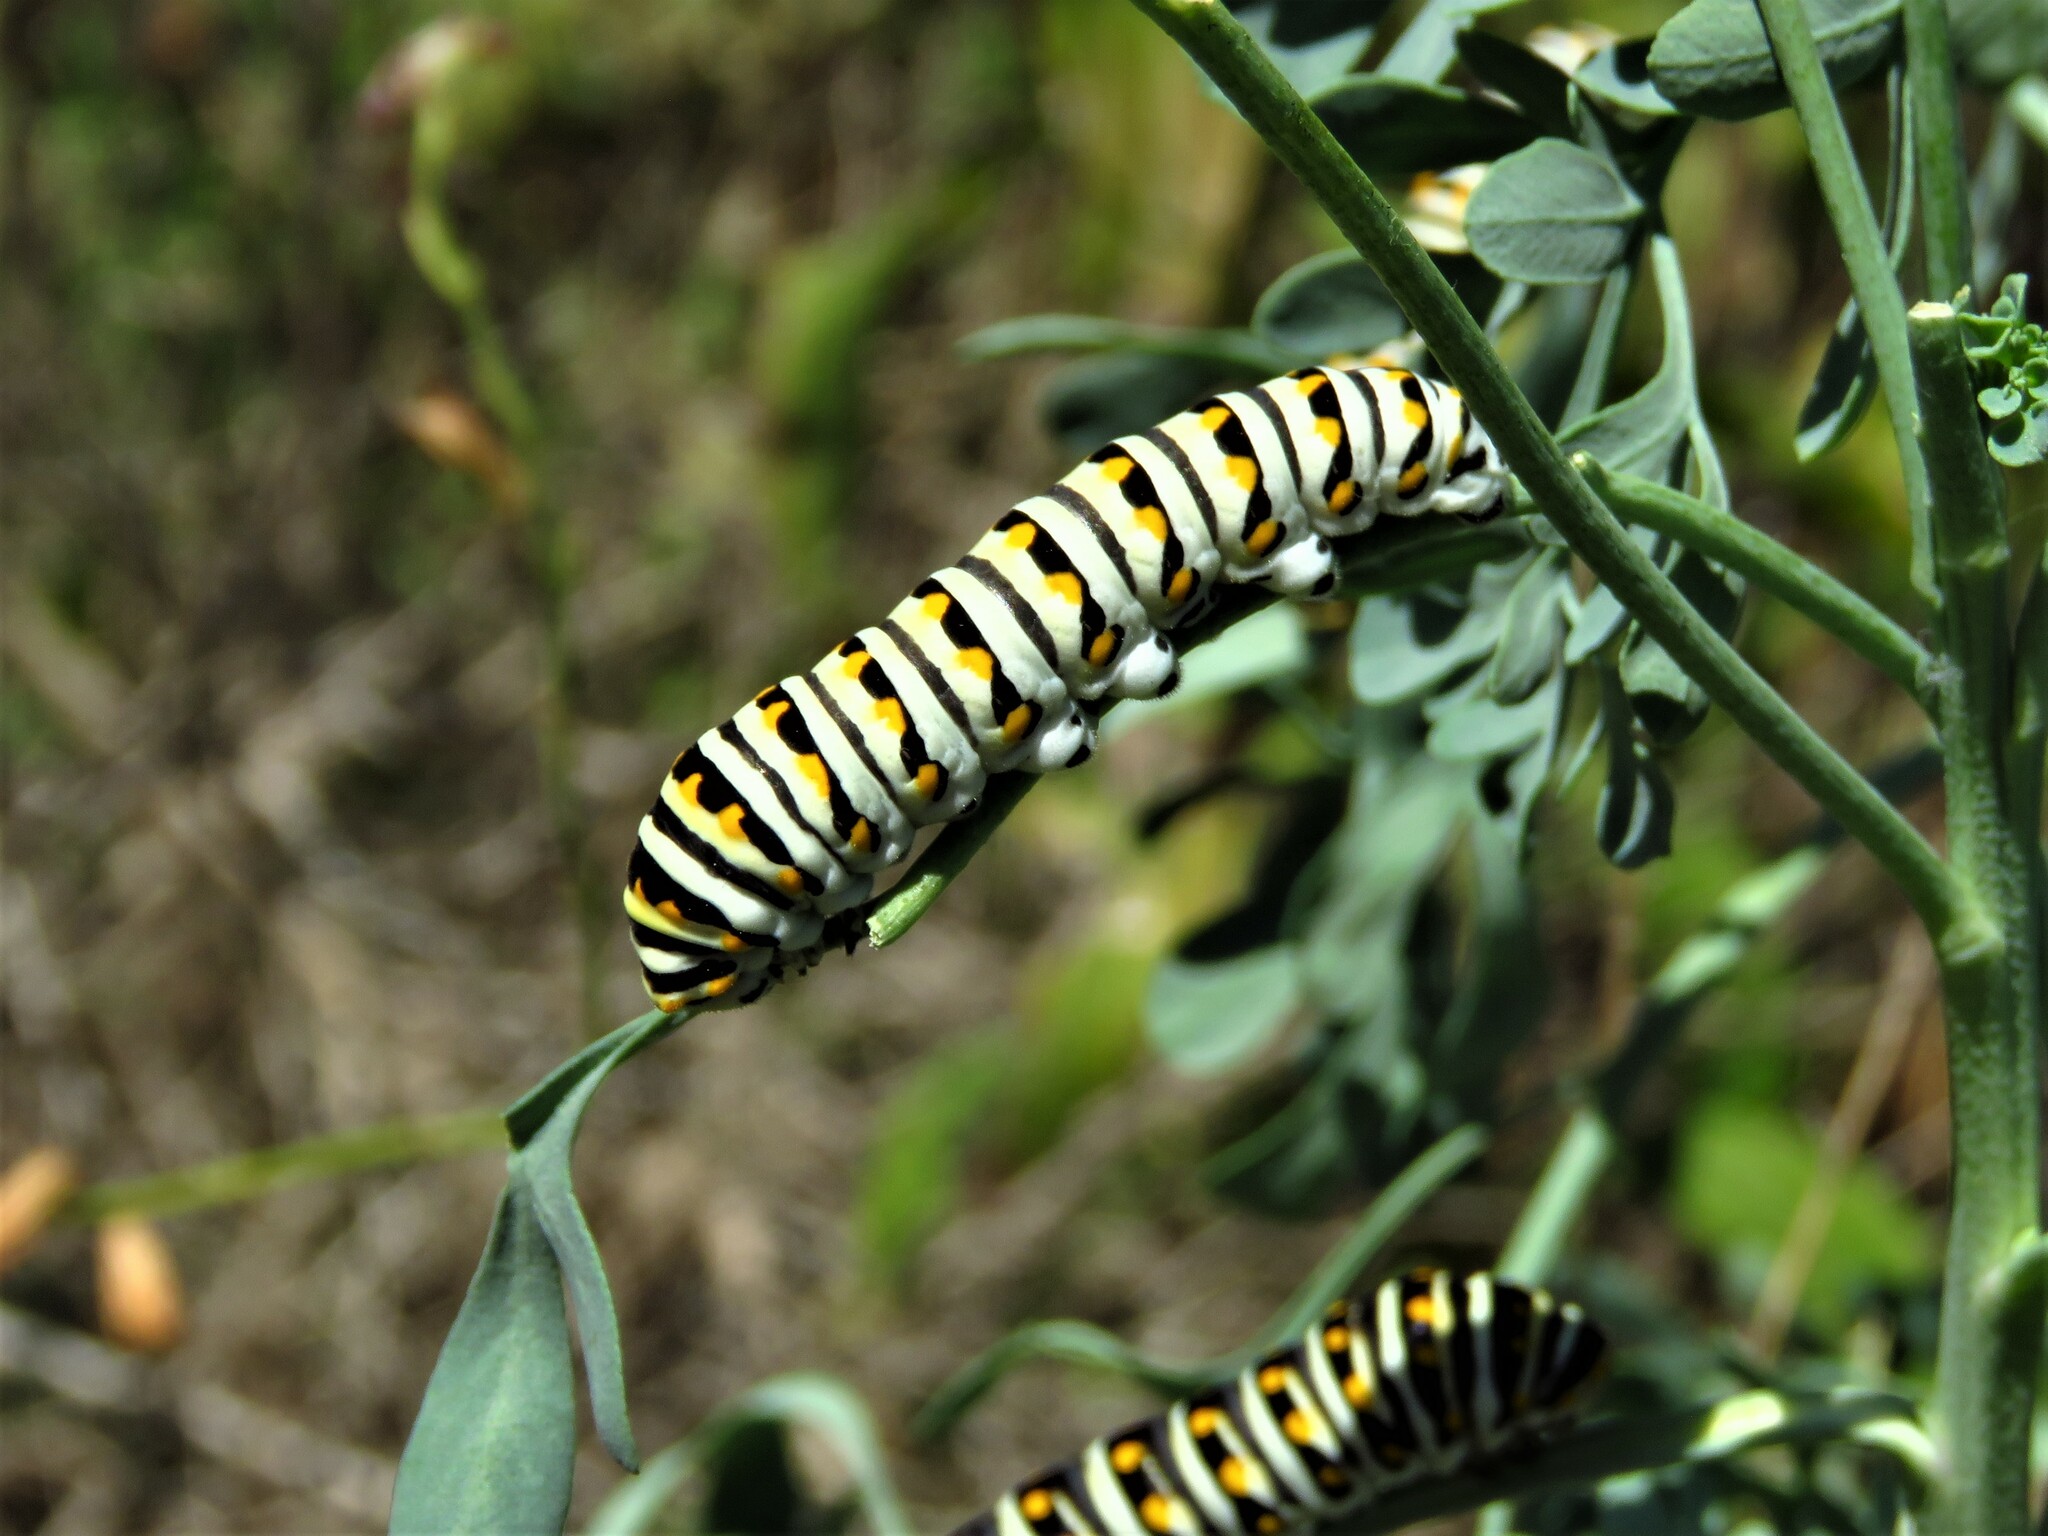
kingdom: Animalia
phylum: Arthropoda
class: Insecta
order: Lepidoptera
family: Papilionidae
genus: Papilio
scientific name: Papilio polyxenes
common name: Black swallowtail
